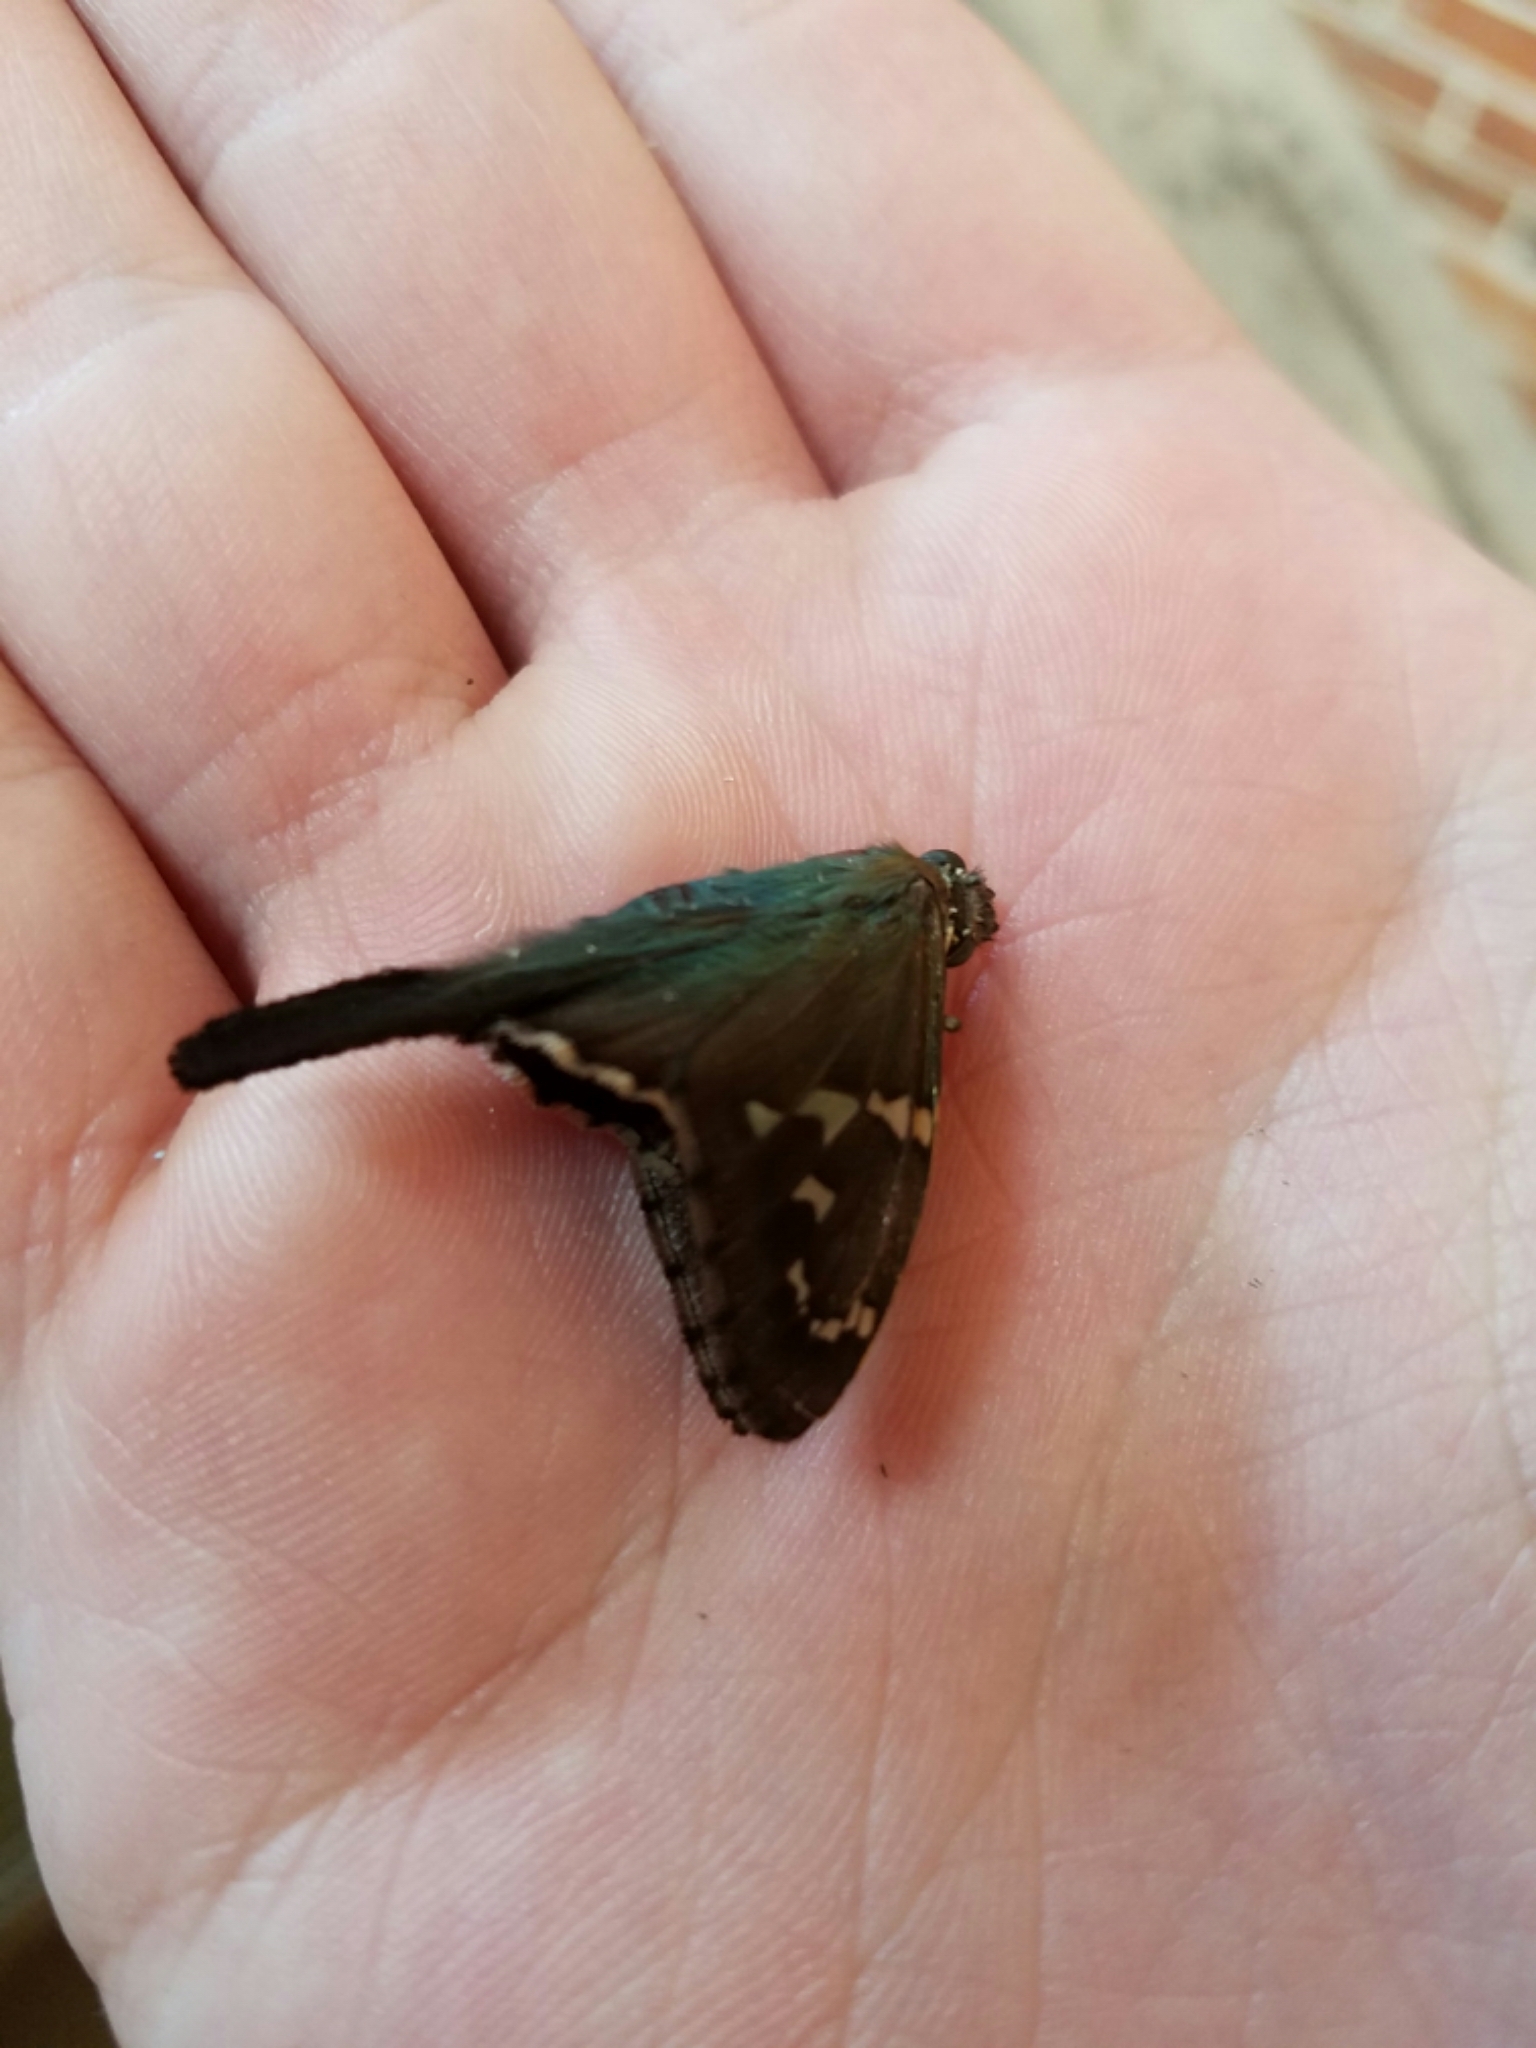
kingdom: Animalia
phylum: Arthropoda
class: Insecta
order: Lepidoptera
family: Hesperiidae
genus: Urbanus
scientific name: Urbanus proteus
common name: Long-tailed skipper
